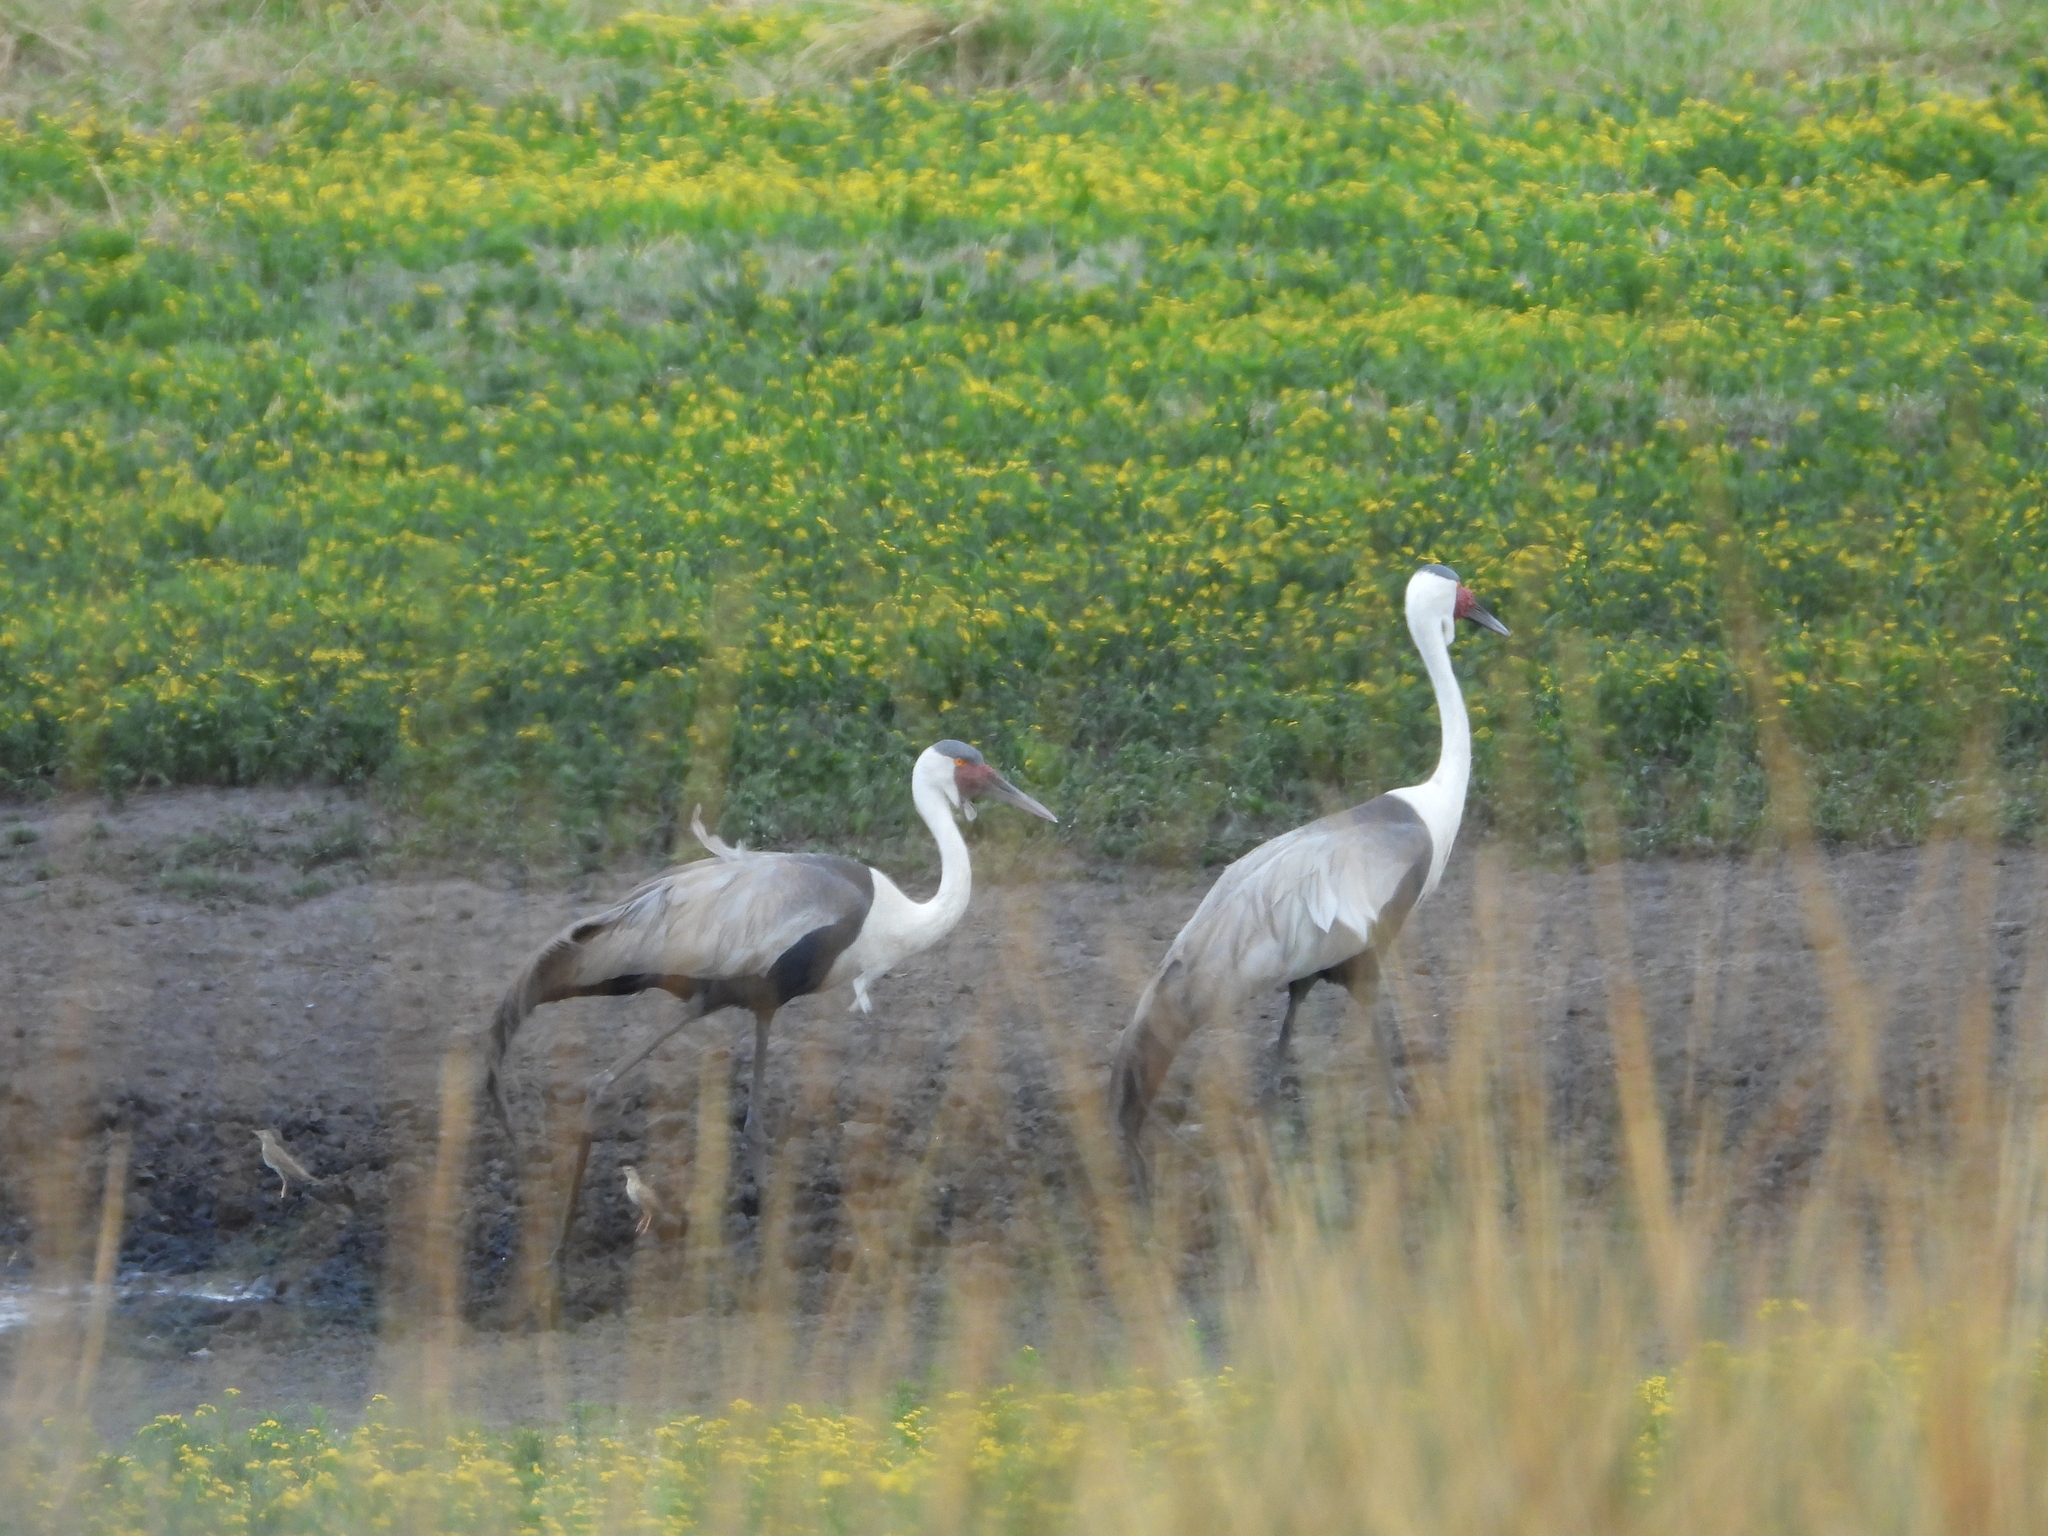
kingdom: Animalia
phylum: Chordata
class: Aves
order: Gruiformes
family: Gruidae
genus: Bugeranus
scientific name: Bugeranus carunculatus
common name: Wattled crane
